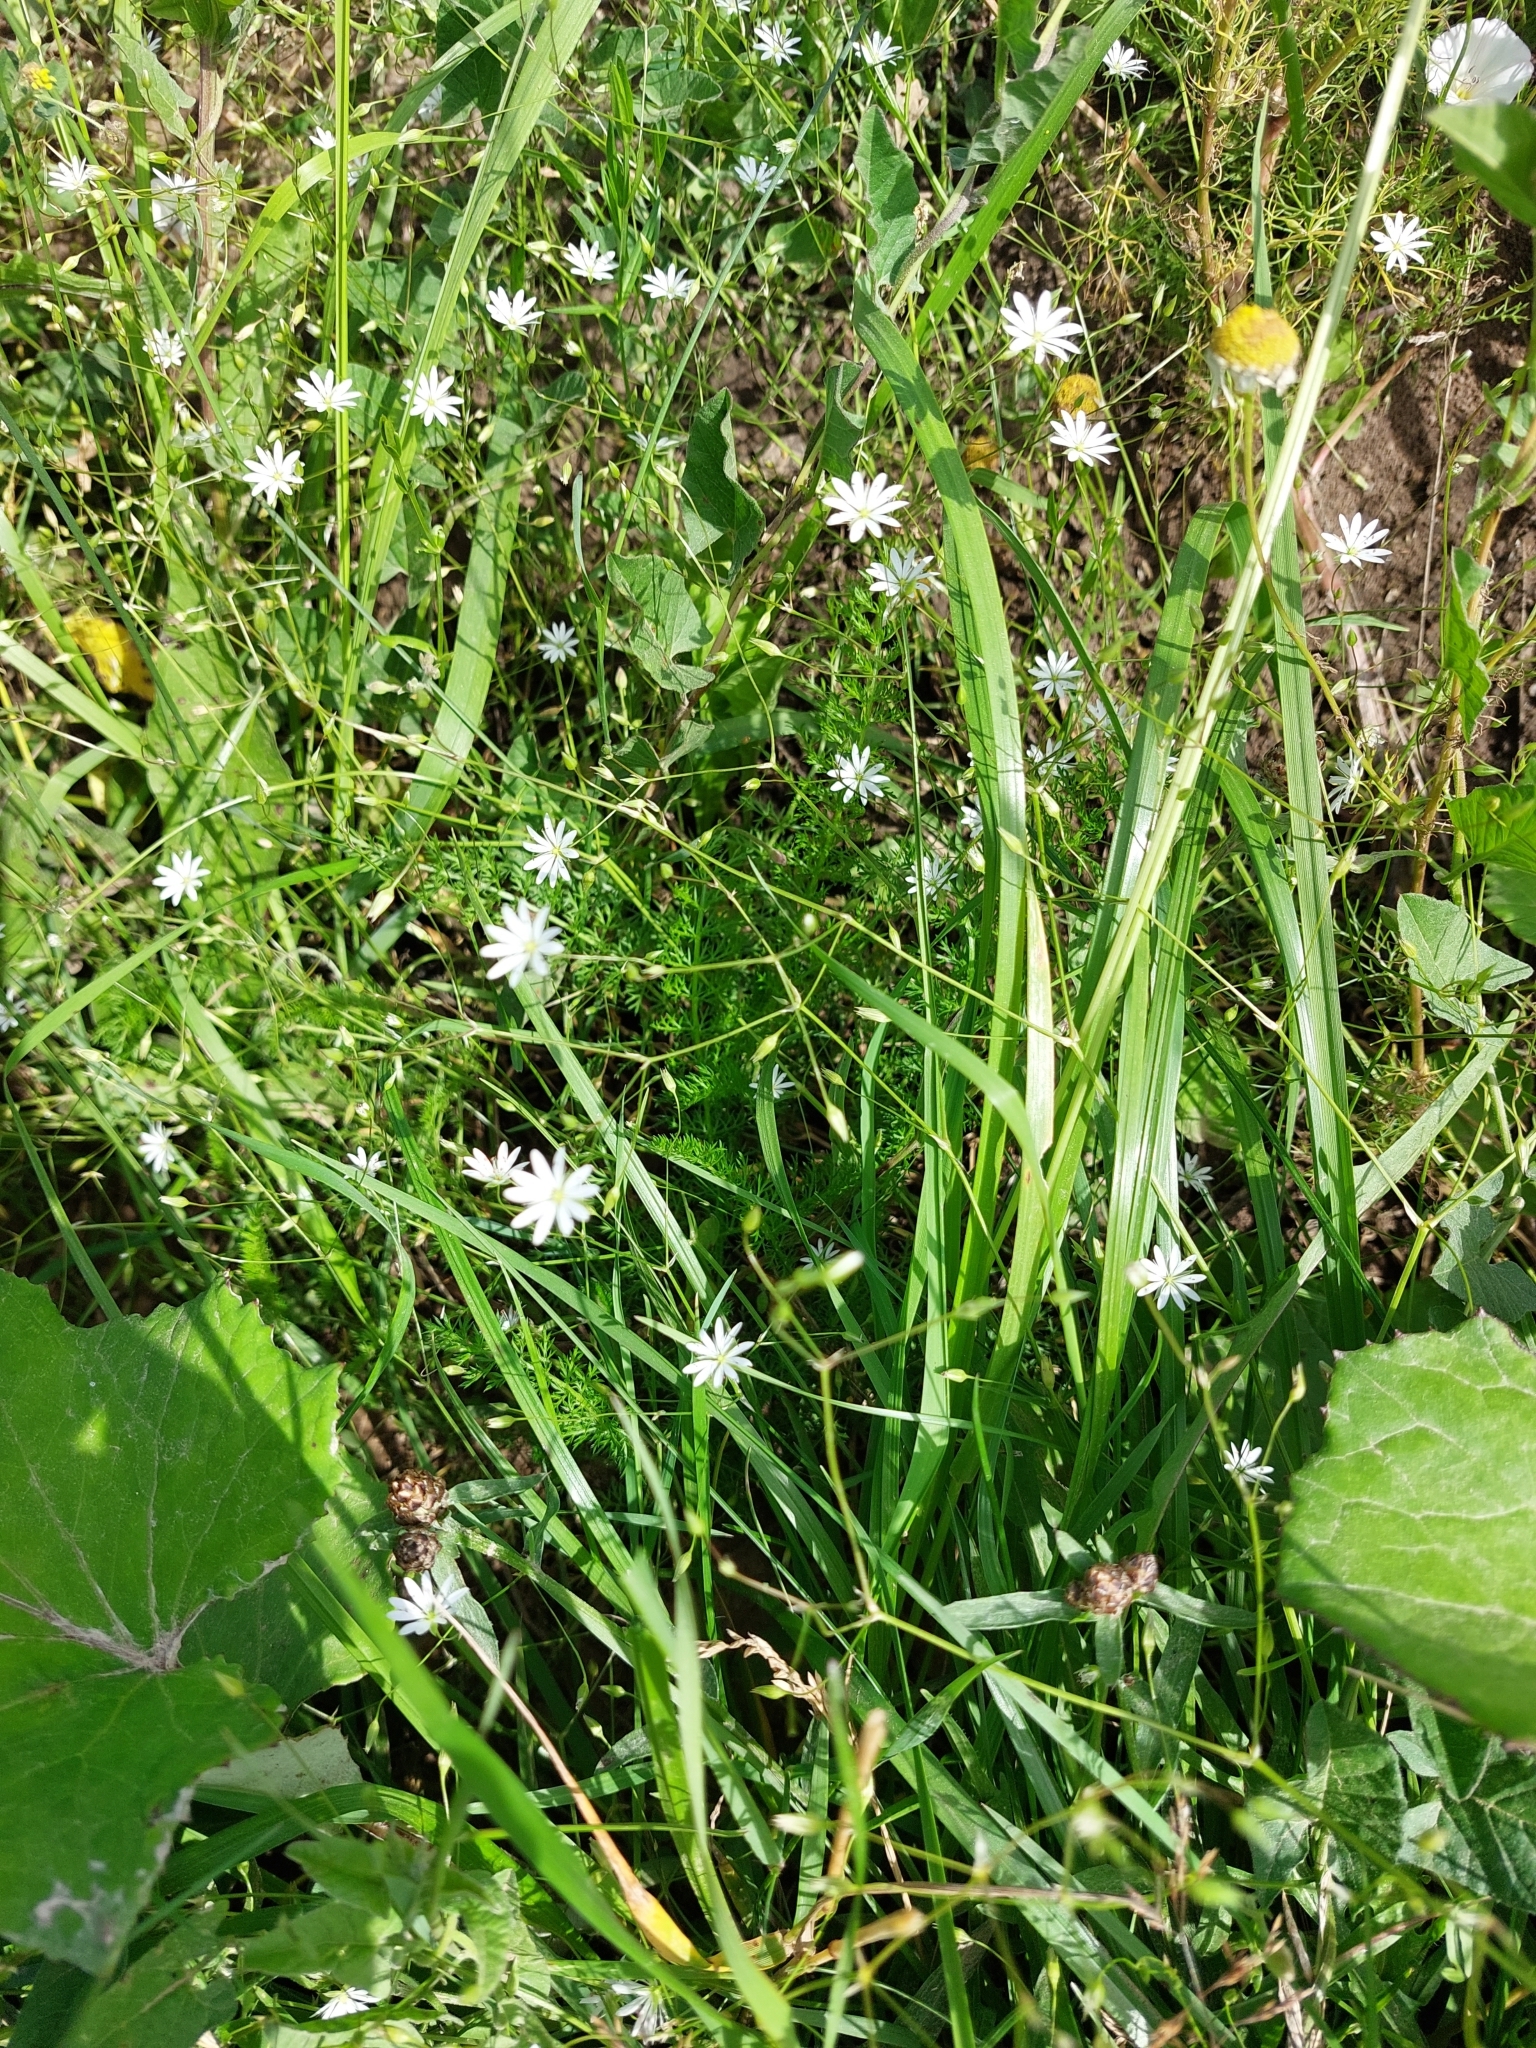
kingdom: Plantae
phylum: Tracheophyta
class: Magnoliopsida
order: Caryophyllales
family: Caryophyllaceae
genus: Stellaria
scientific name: Stellaria graminea
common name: Grass-like starwort
